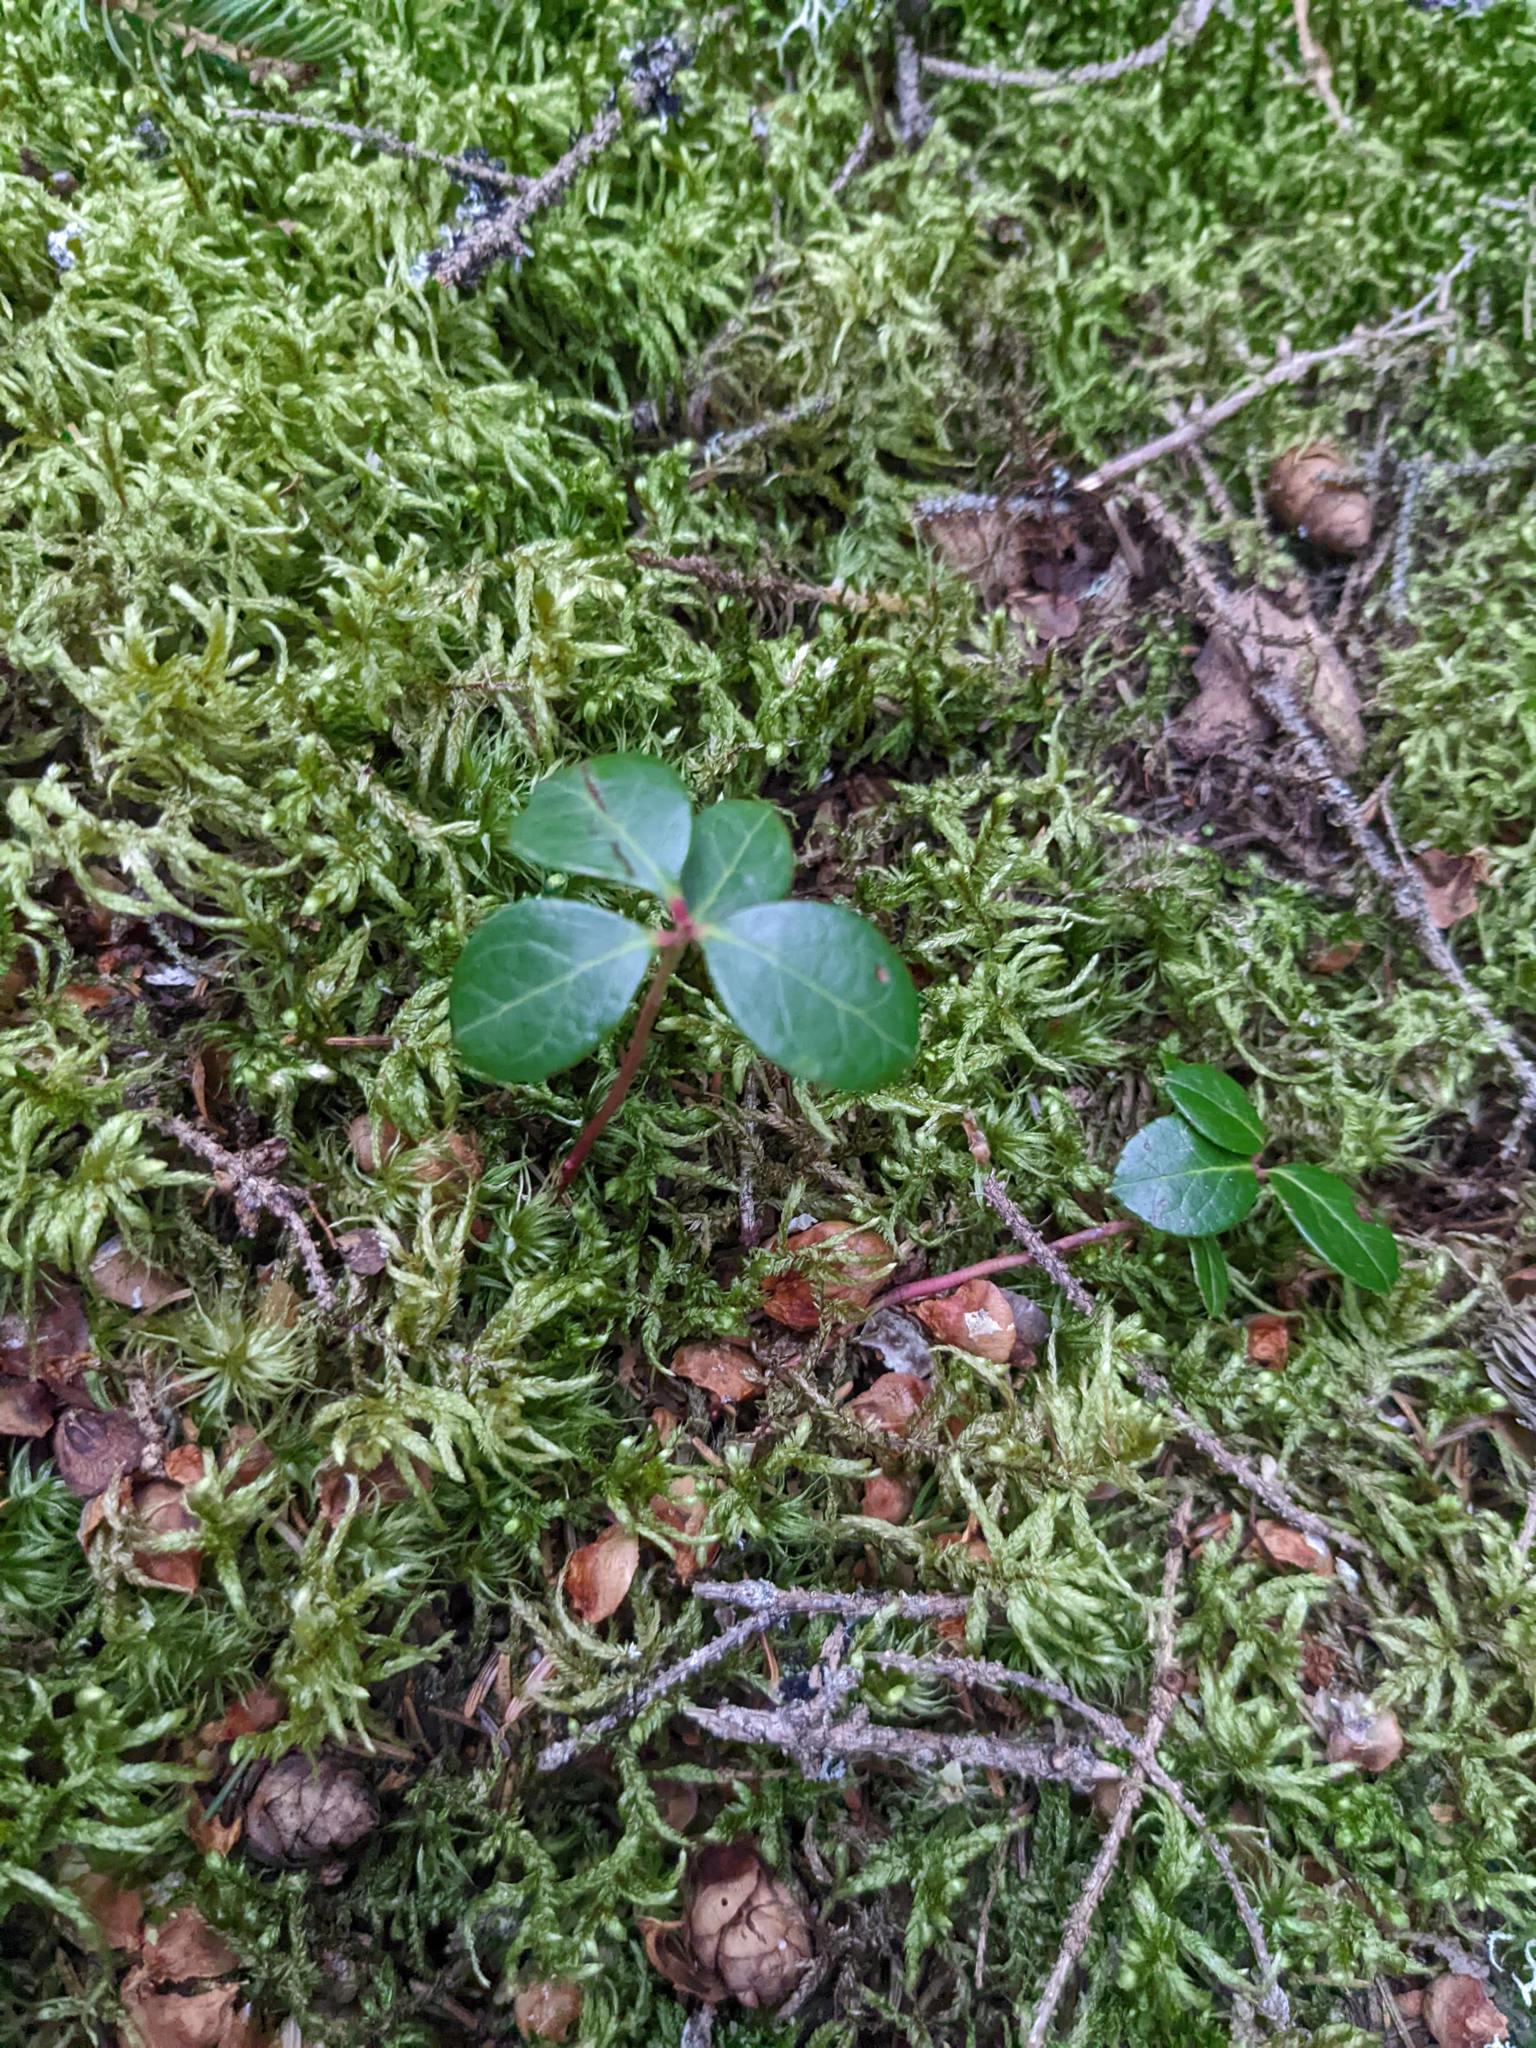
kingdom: Plantae
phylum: Tracheophyta
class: Magnoliopsida
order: Ericales
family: Ericaceae
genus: Gaultheria
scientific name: Gaultheria procumbens
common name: Checkerberry
